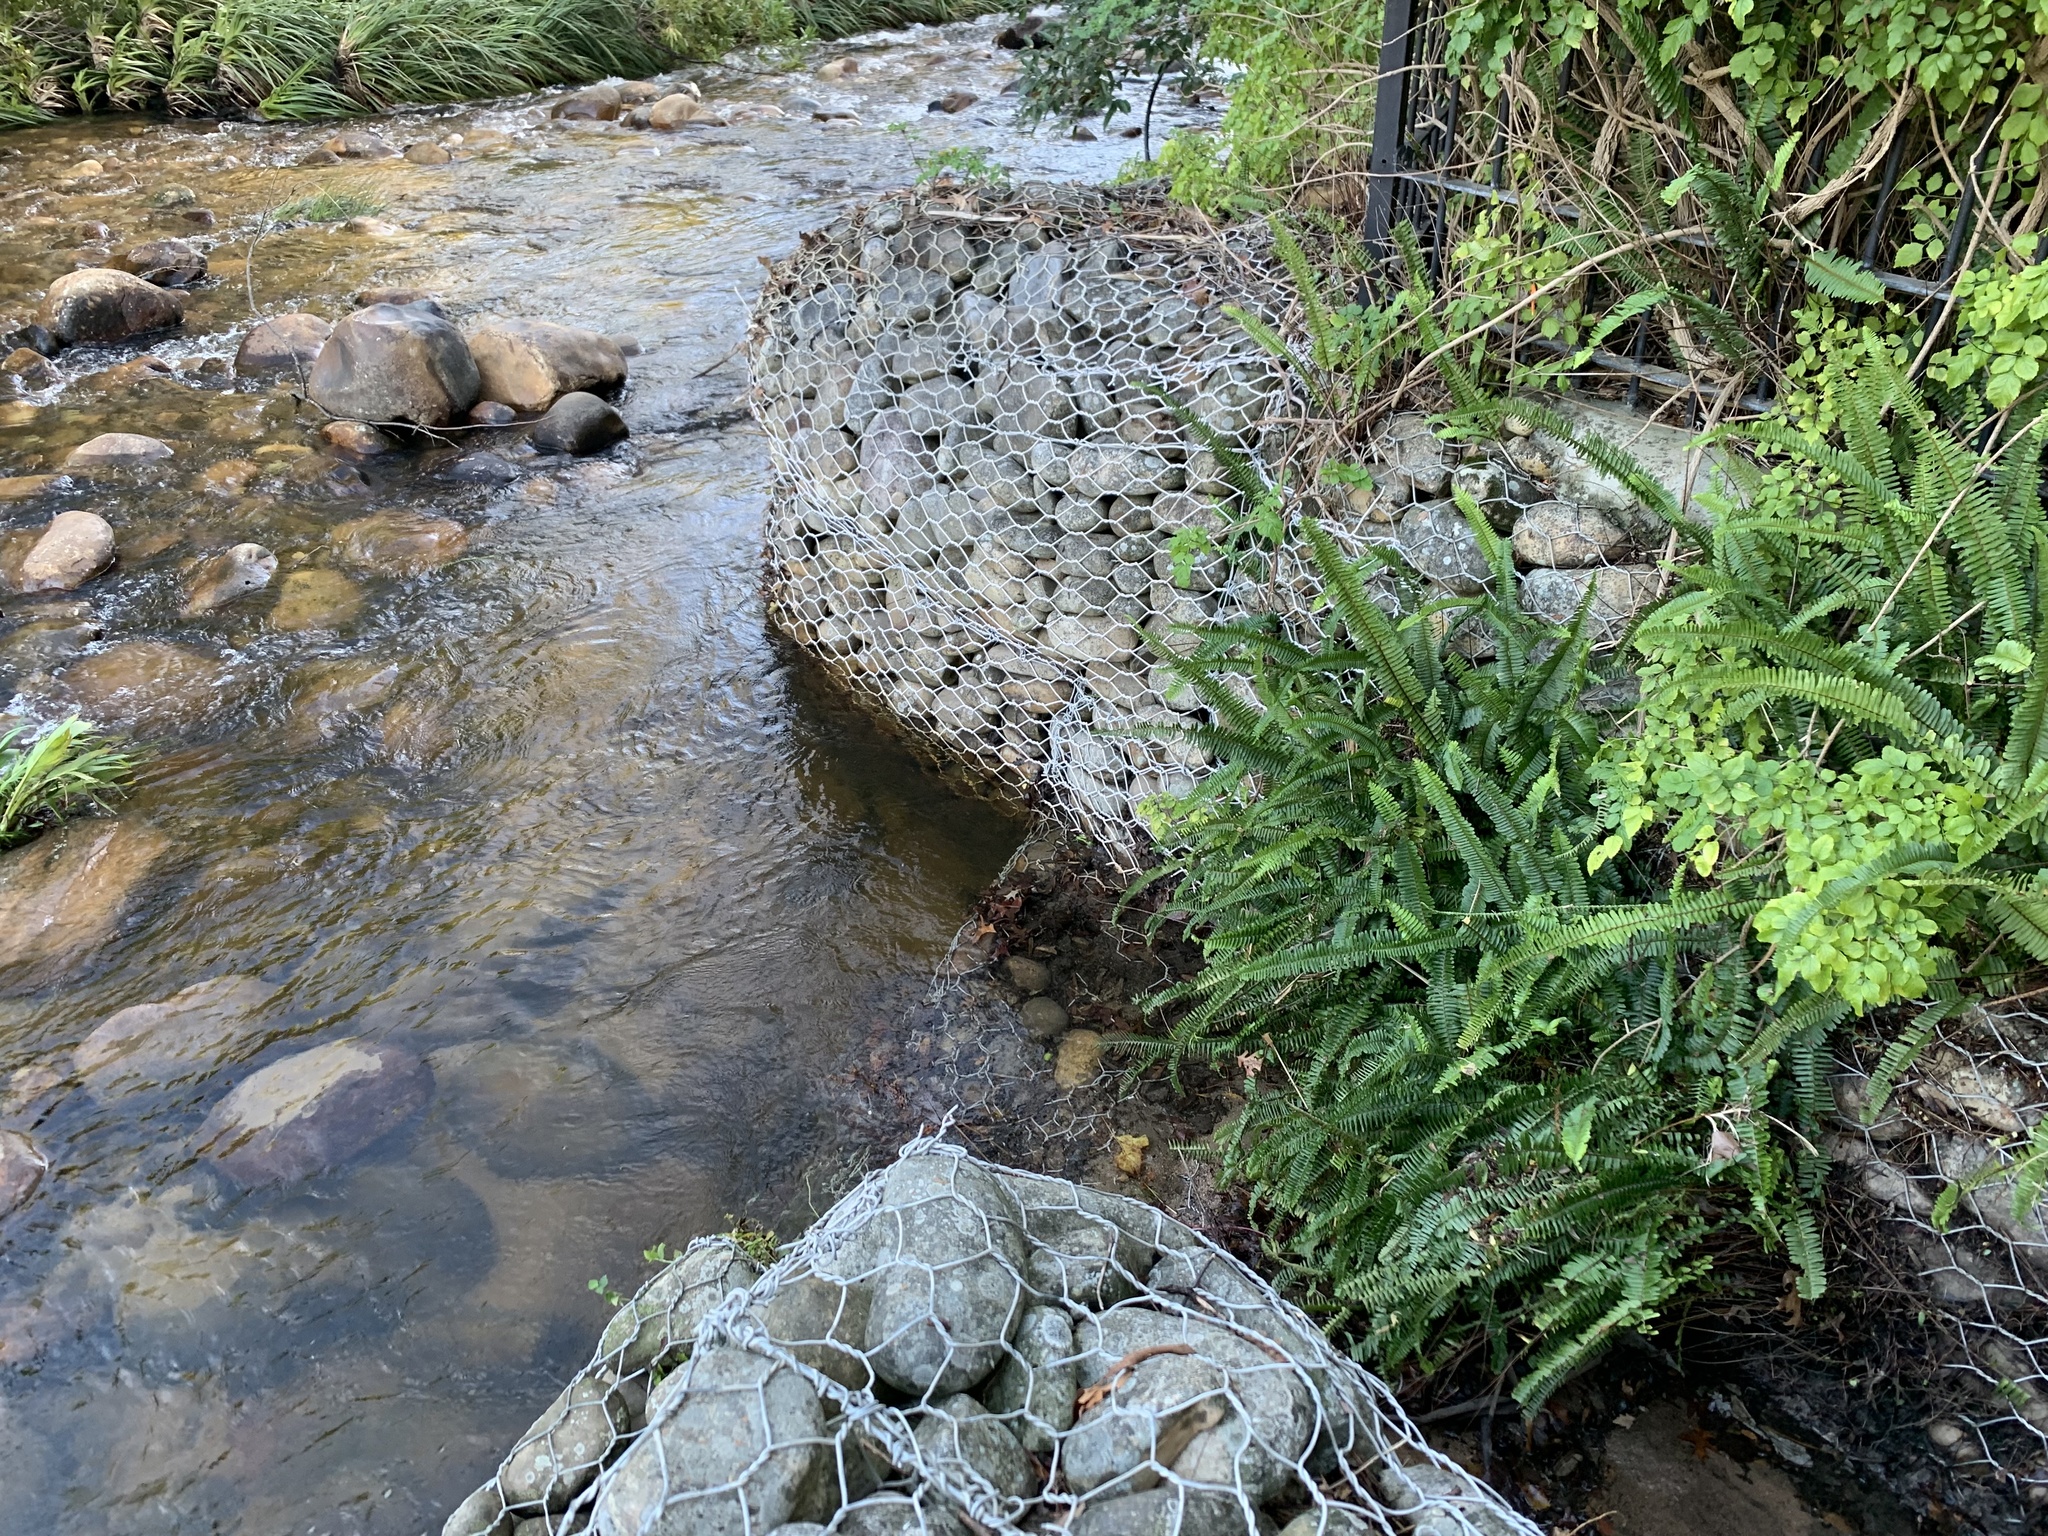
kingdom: Plantae
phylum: Tracheophyta
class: Polypodiopsida
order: Polypodiales
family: Nephrolepidaceae
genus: Nephrolepis
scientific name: Nephrolepis cordifolia
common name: Narrow swordfern
